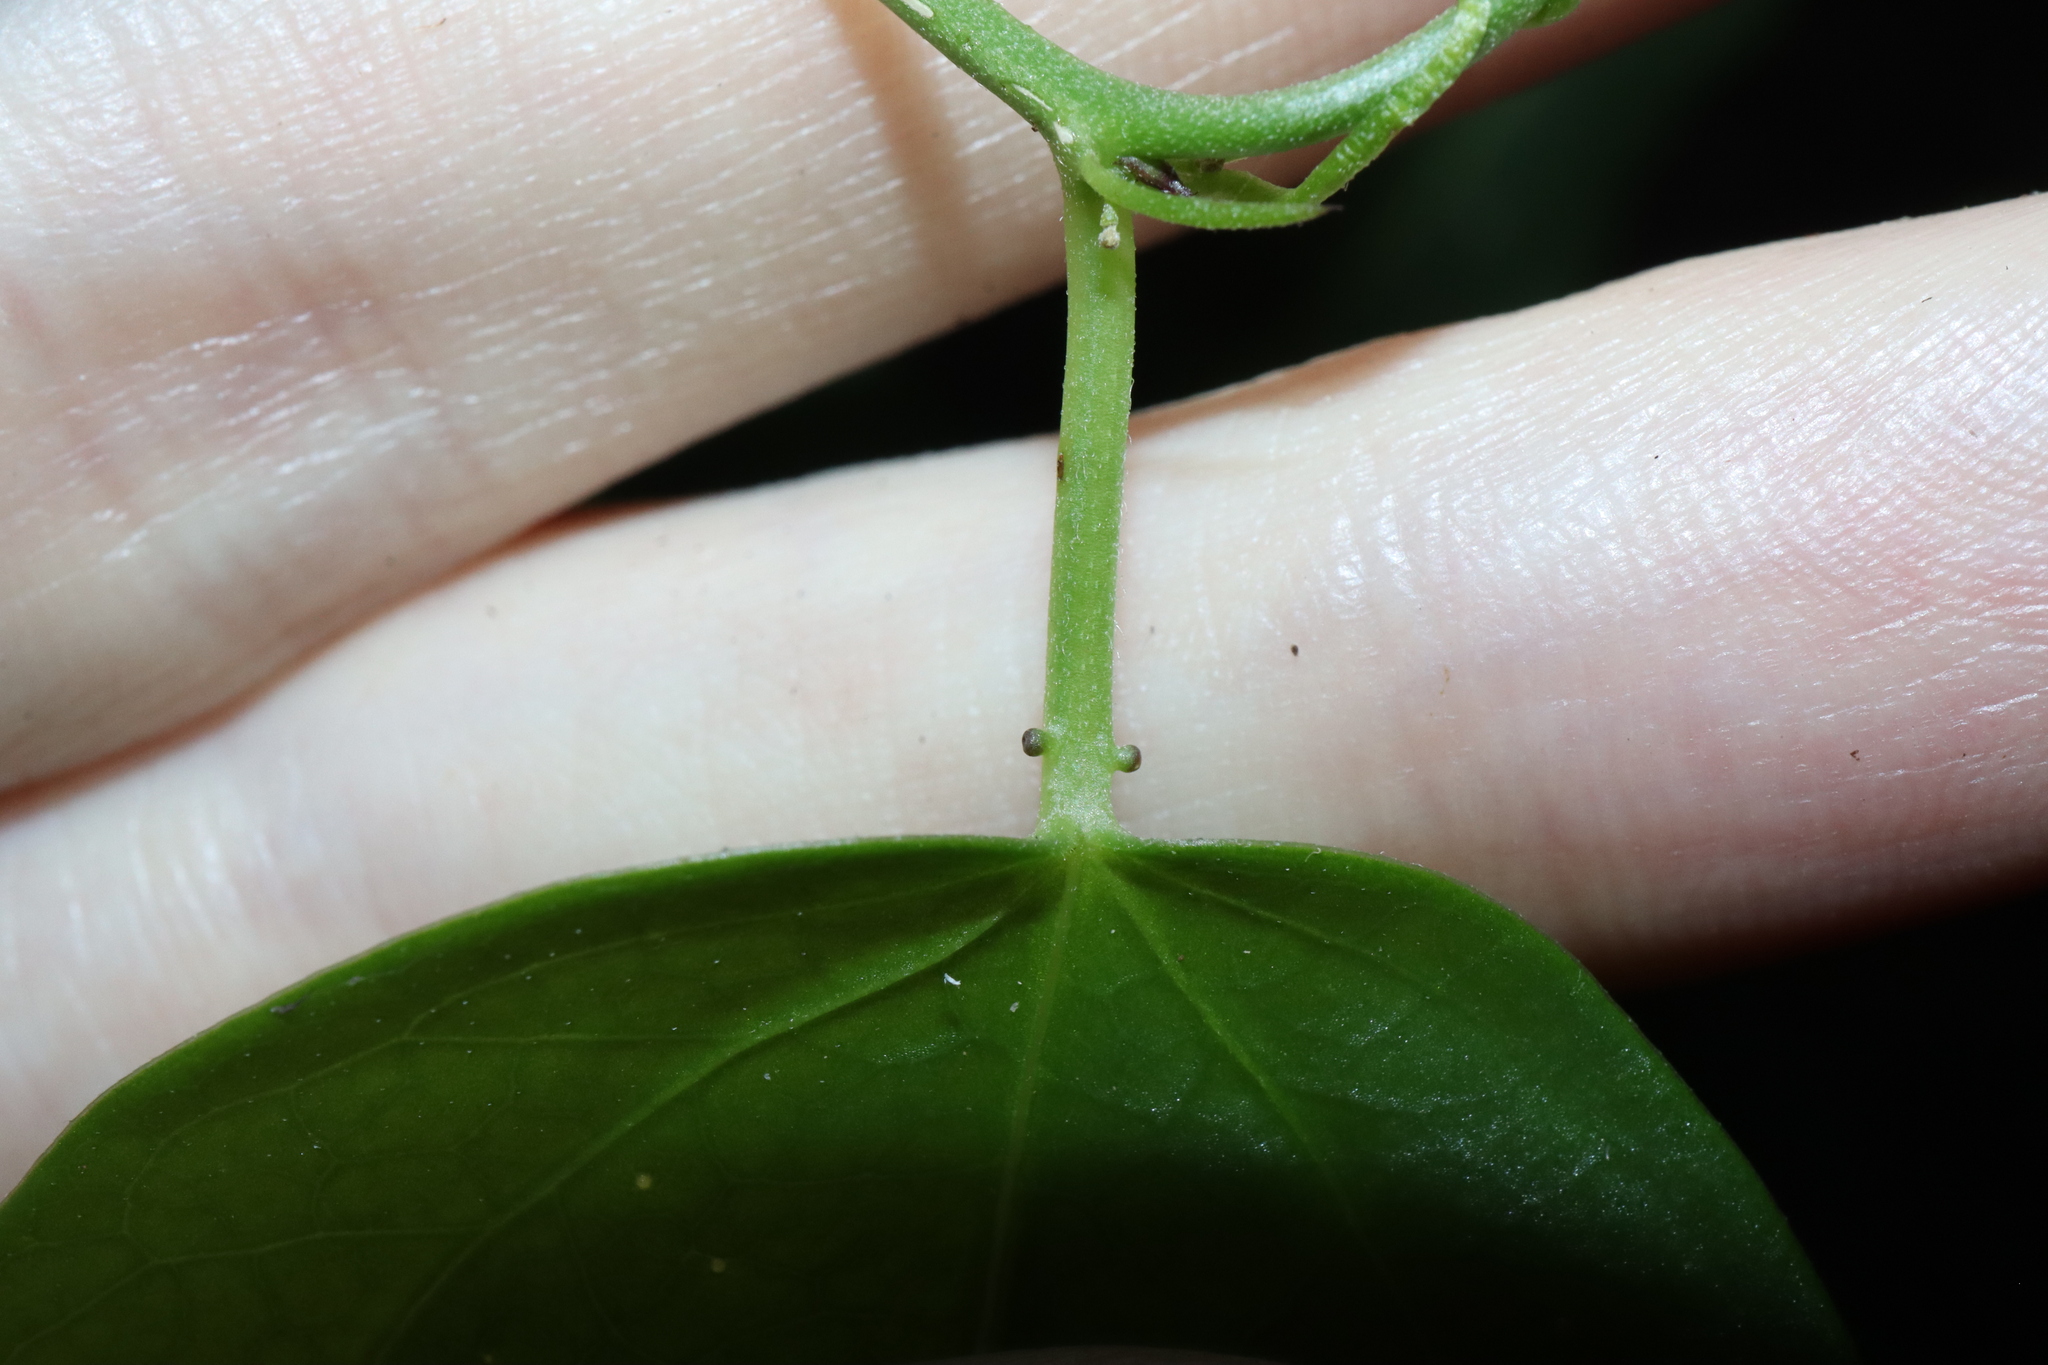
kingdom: Plantae
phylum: Tracheophyta
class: Magnoliopsida
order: Malpighiales
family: Passifloraceae
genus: Passiflora
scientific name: Passiflora pallida
